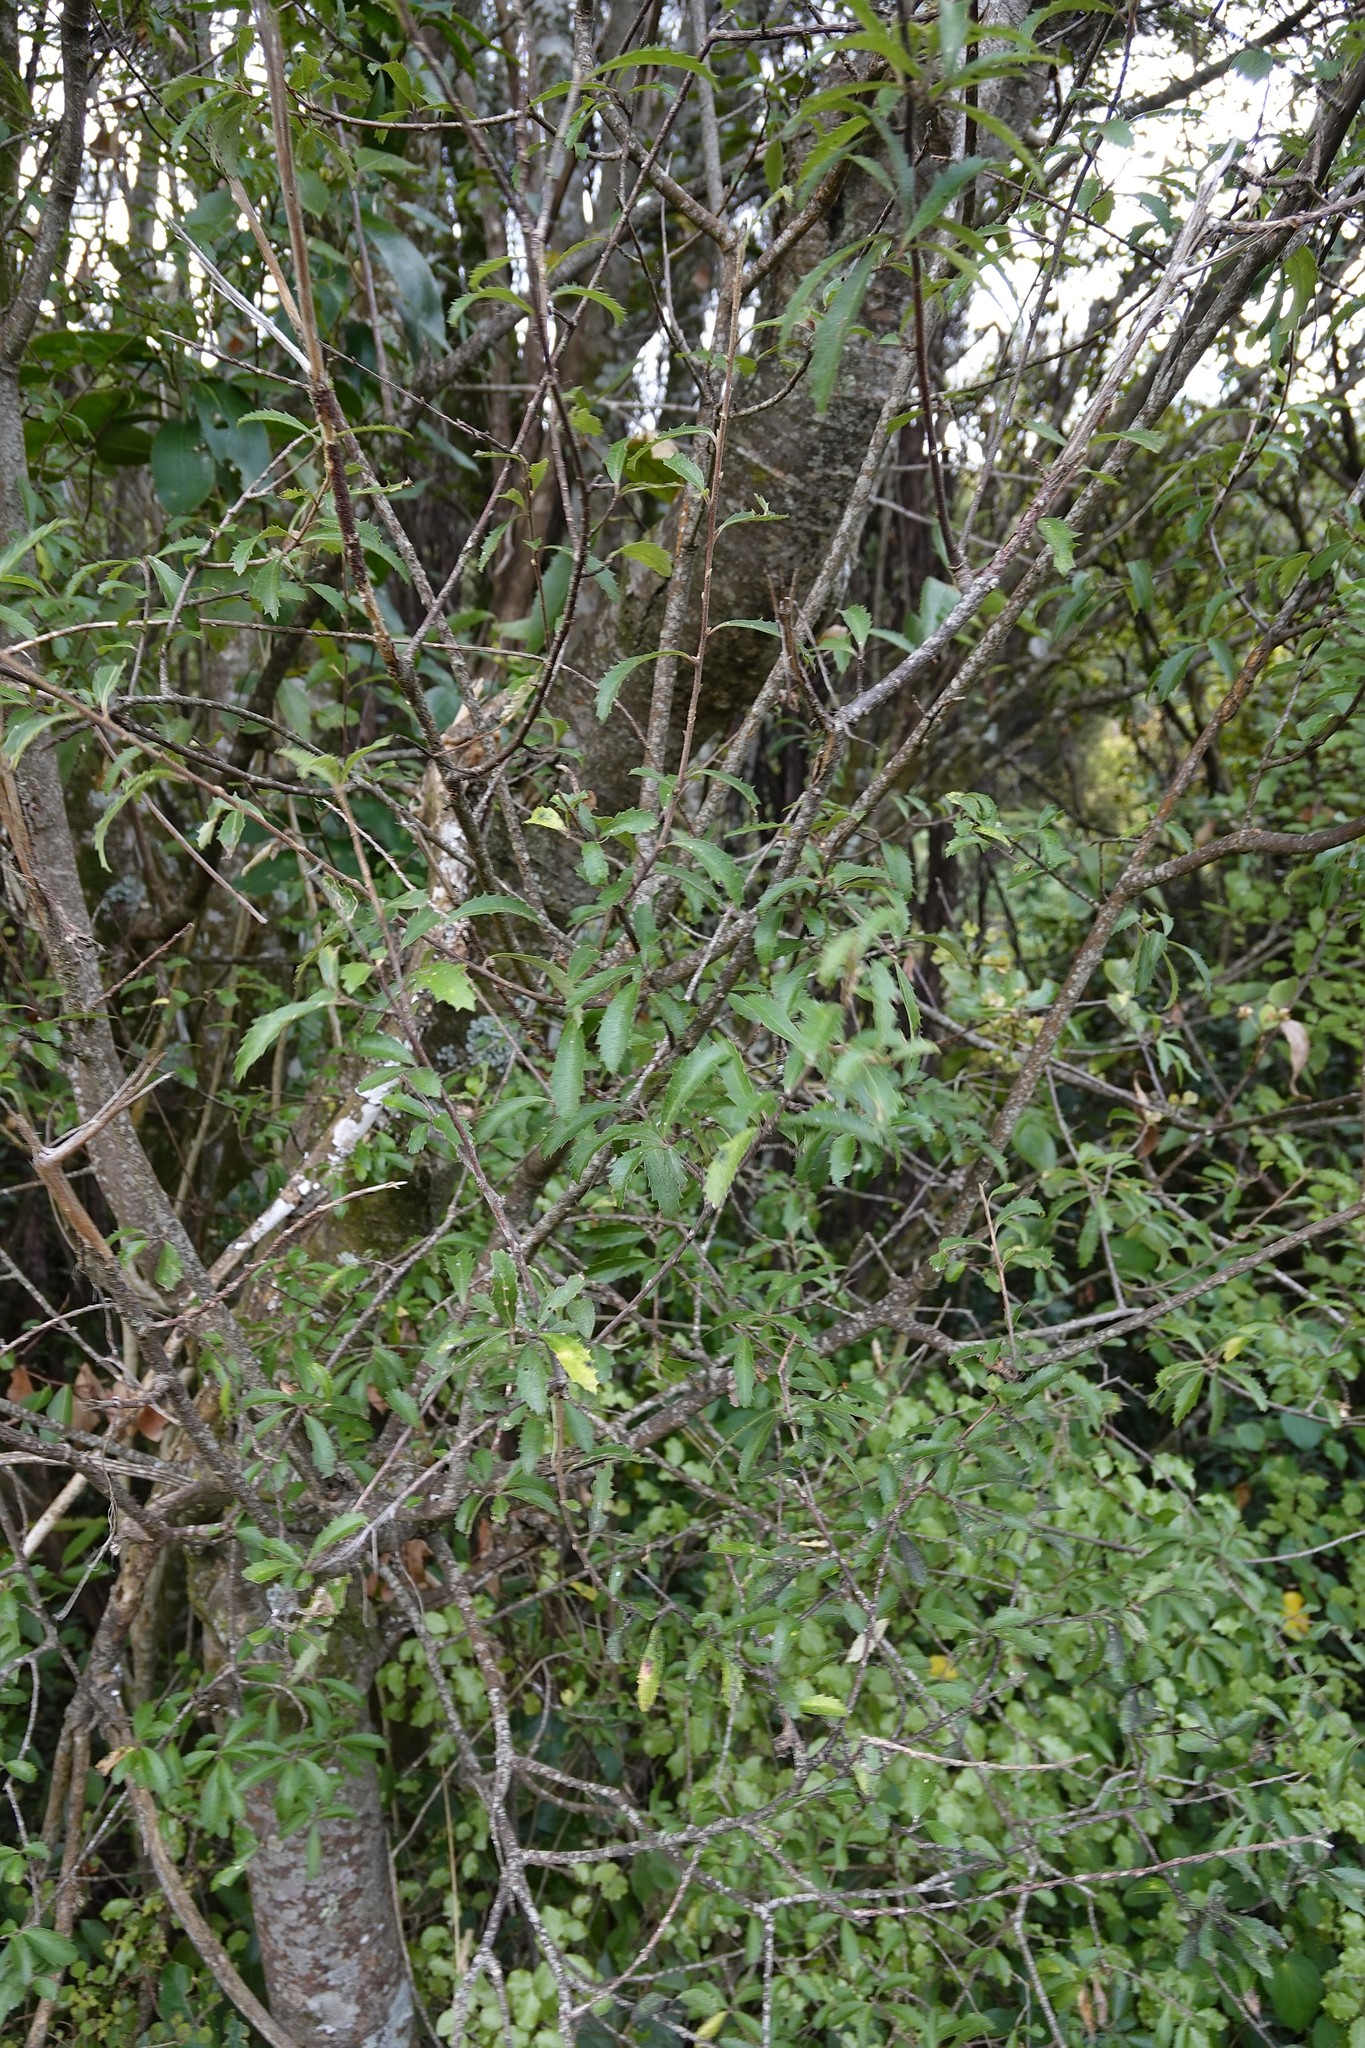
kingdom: Plantae
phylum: Tracheophyta
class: Magnoliopsida
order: Malvales
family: Malvaceae
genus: Hoheria
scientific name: Hoheria angustifolia
